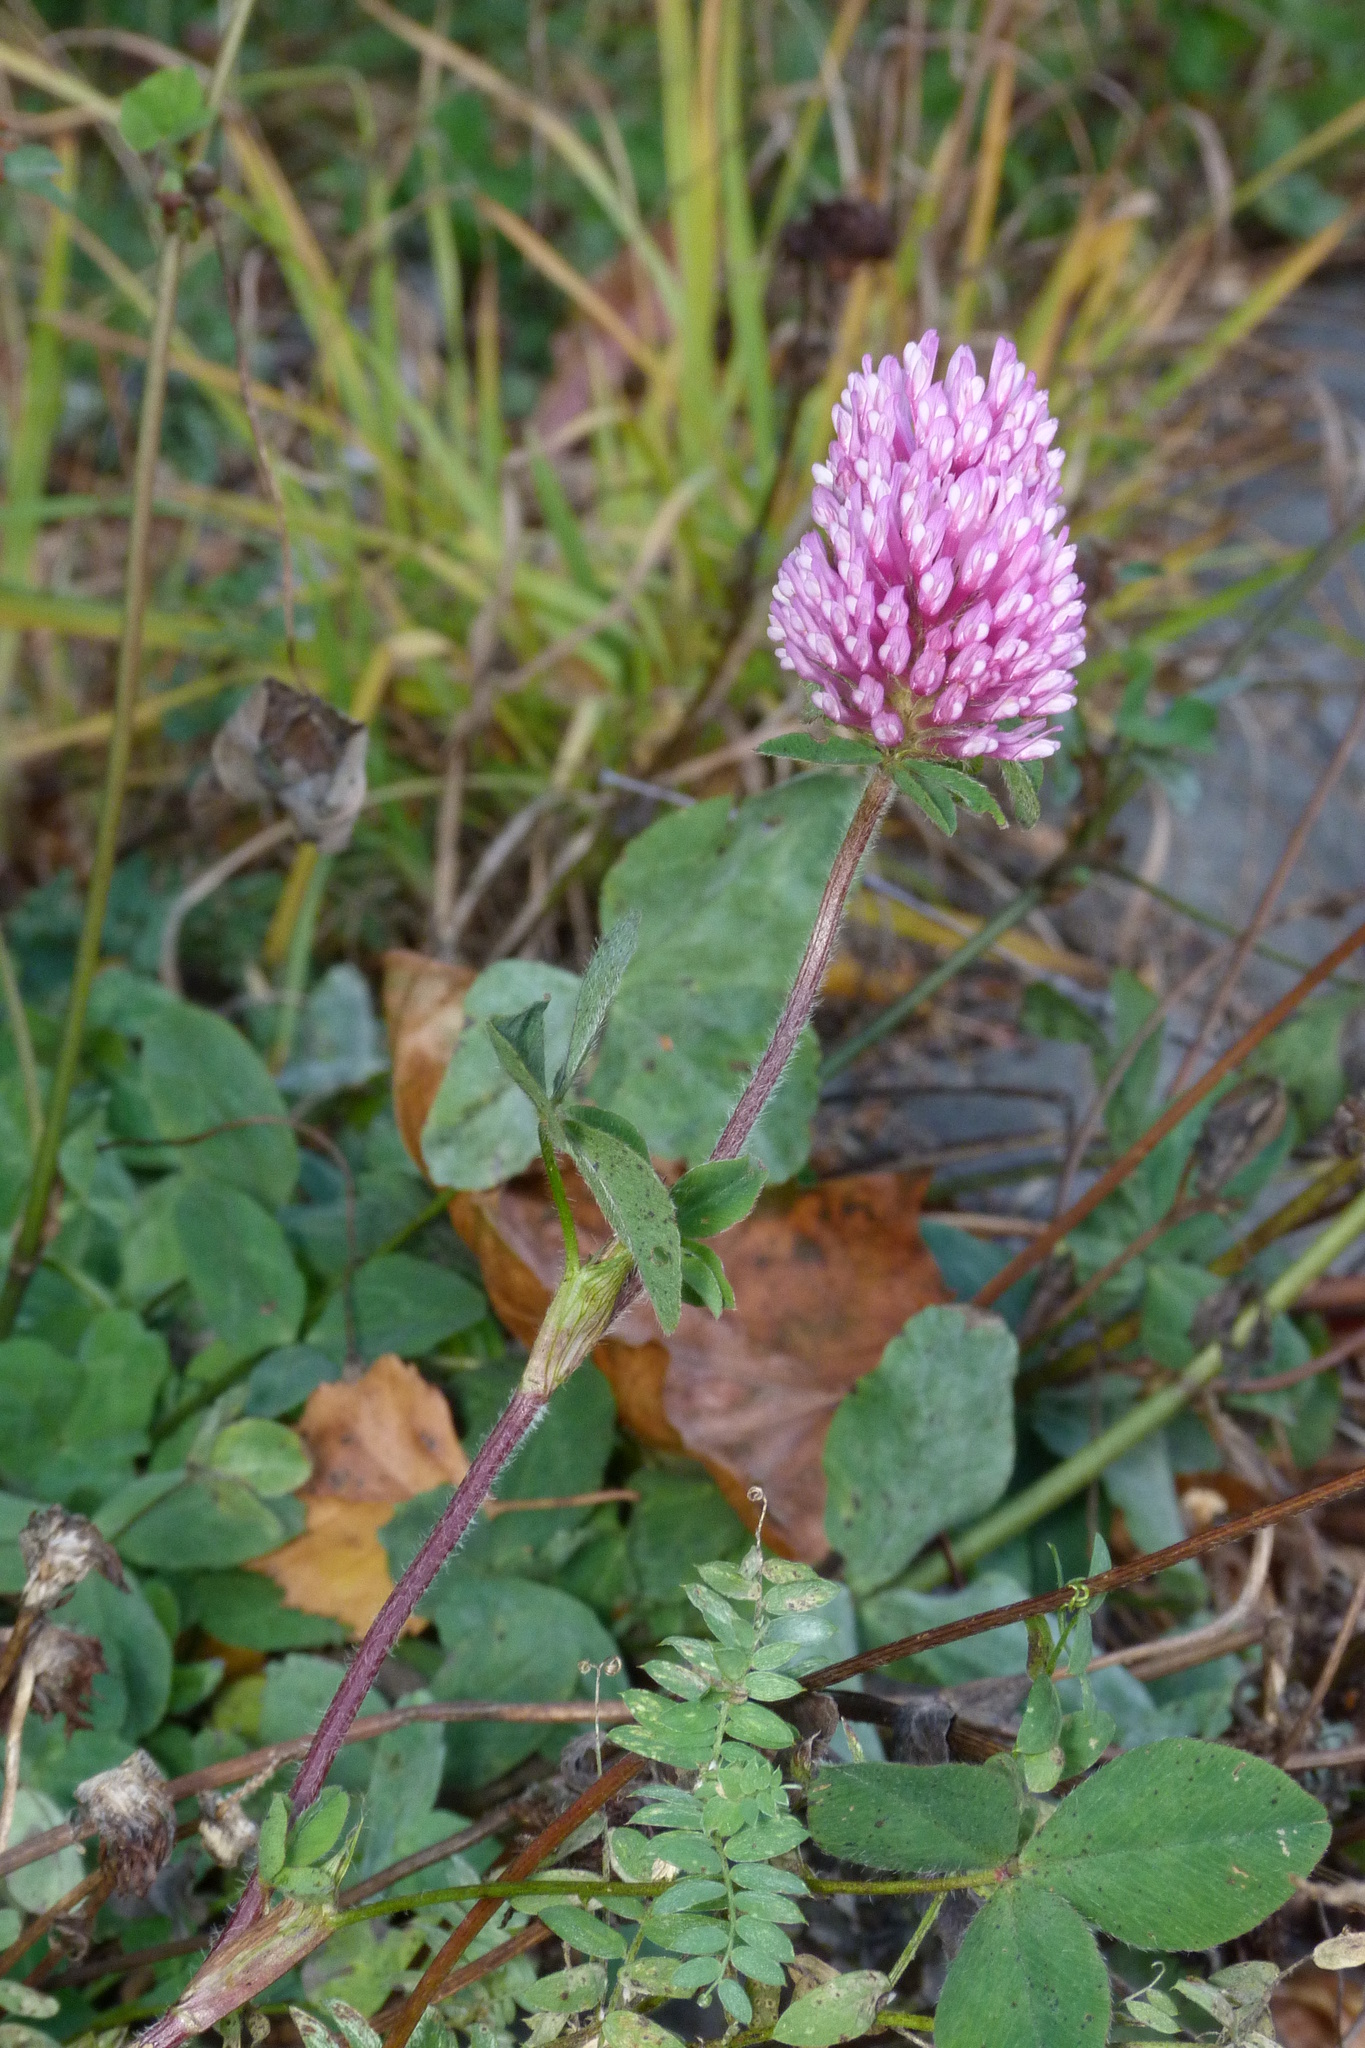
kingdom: Plantae
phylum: Tracheophyta
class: Magnoliopsida
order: Fabales
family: Fabaceae
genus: Trifolium
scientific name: Trifolium pratense
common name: Red clover
